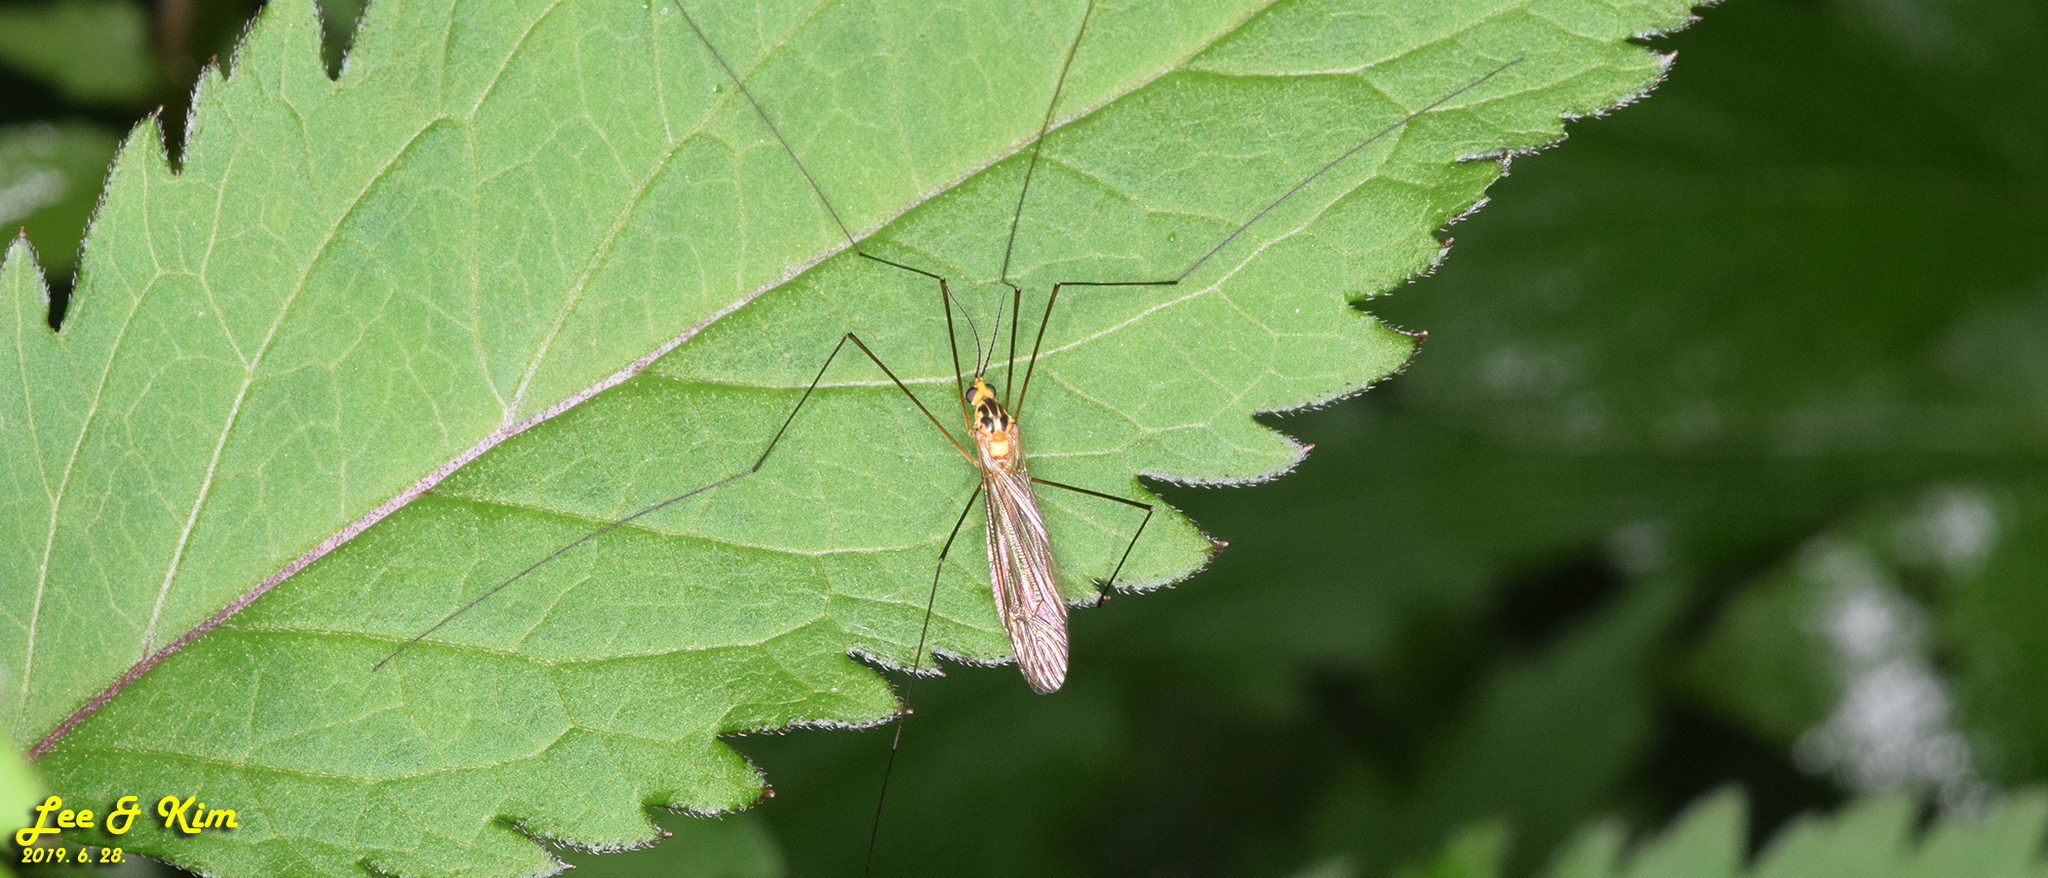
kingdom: Animalia
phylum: Arthropoda
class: Insecta
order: Diptera
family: Tipulidae
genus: Nephrotoma
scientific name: Nephrotoma virgata
